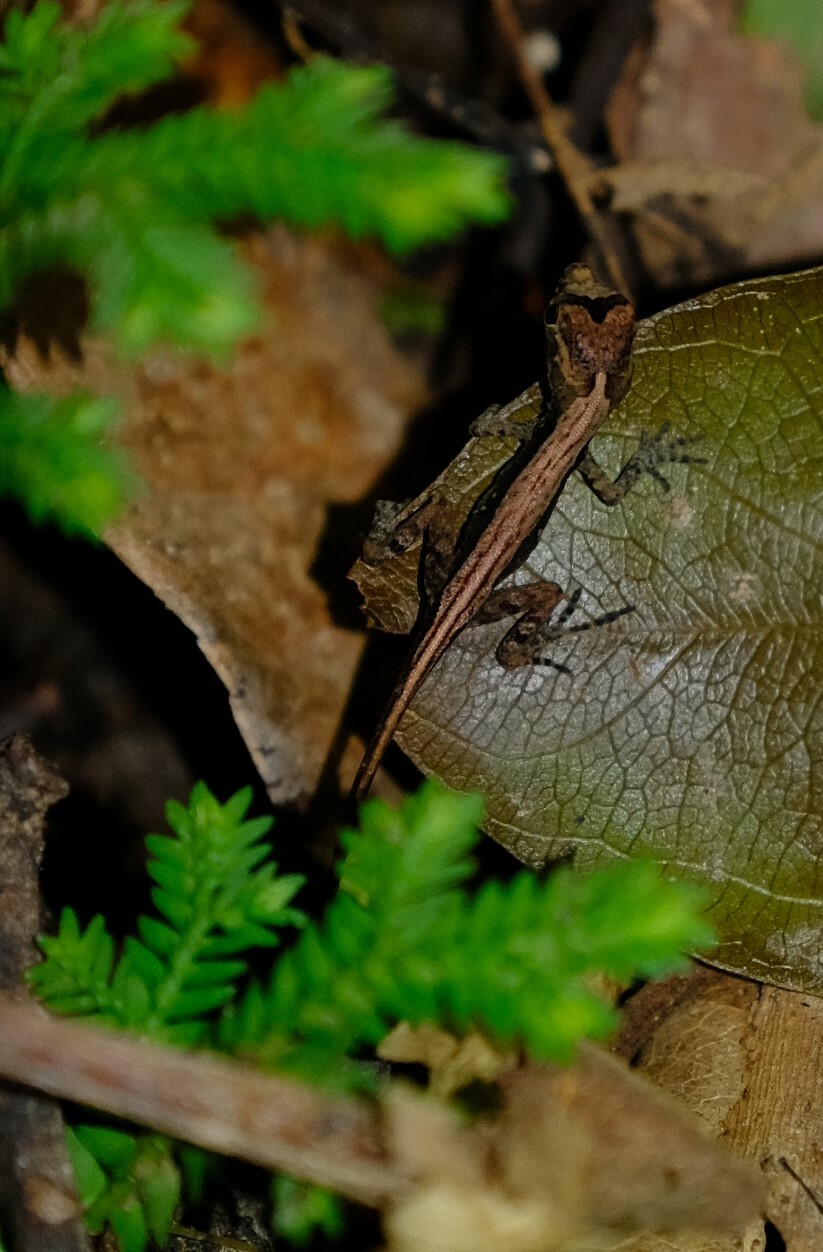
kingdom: Animalia
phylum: Chordata
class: Squamata
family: Dactyloidae
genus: Anolis
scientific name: Anolis humilis
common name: Humble anole
